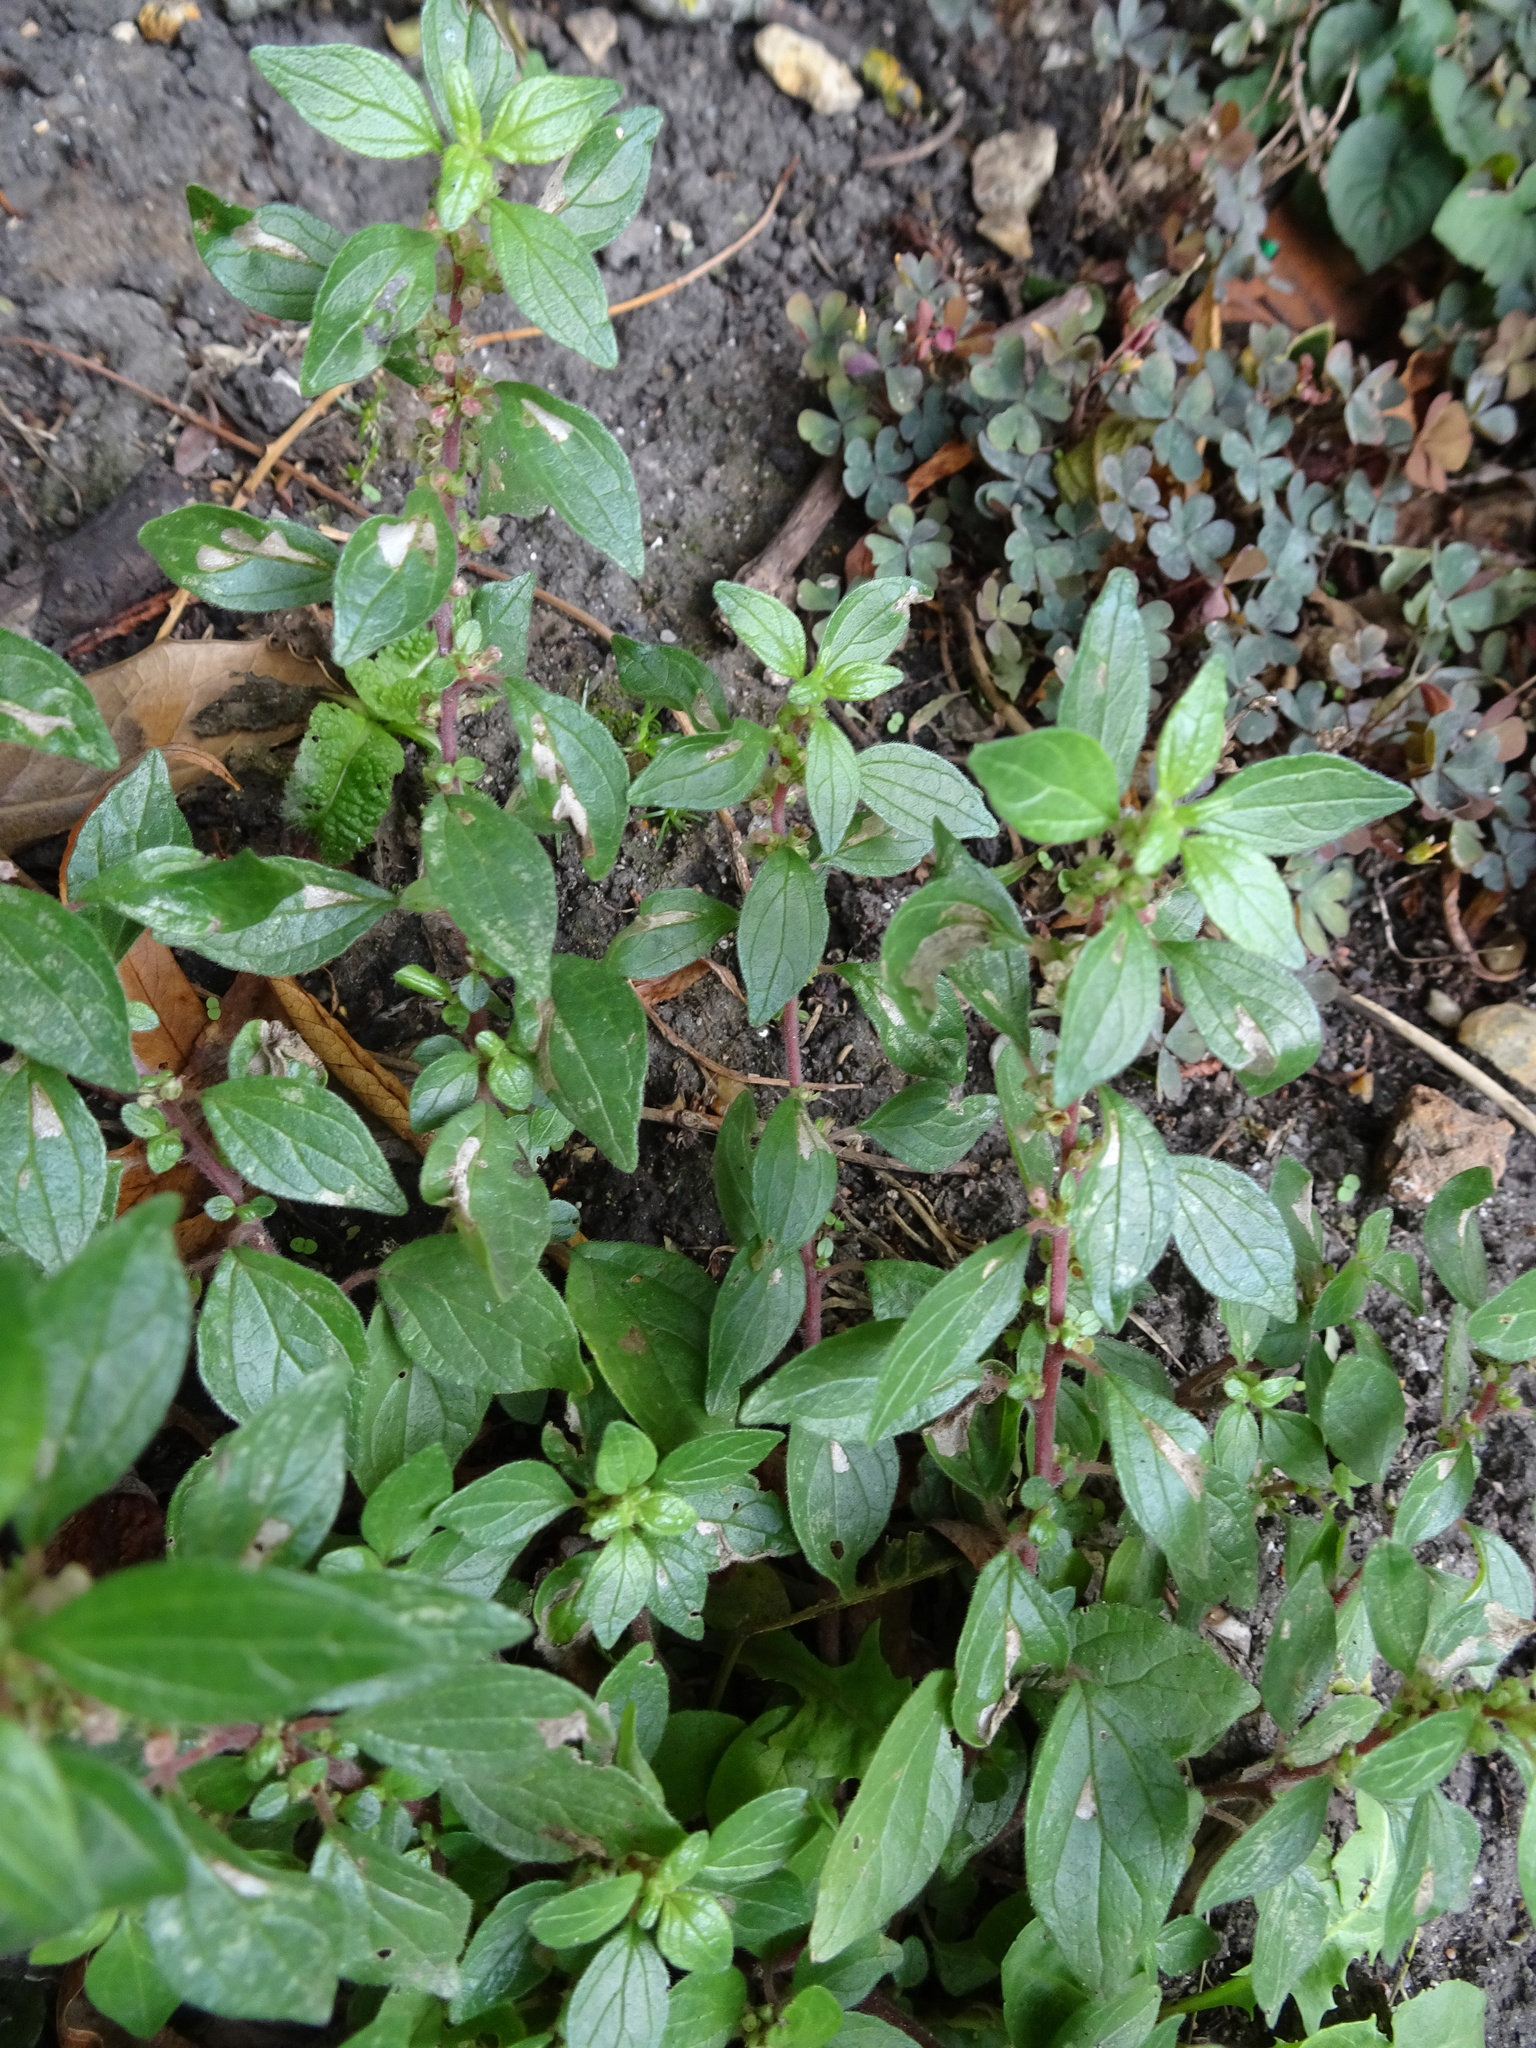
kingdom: Plantae
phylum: Tracheophyta
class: Magnoliopsida
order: Rosales
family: Urticaceae
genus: Parietaria
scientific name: Parietaria judaica
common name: Pellitory-of-the-wall
